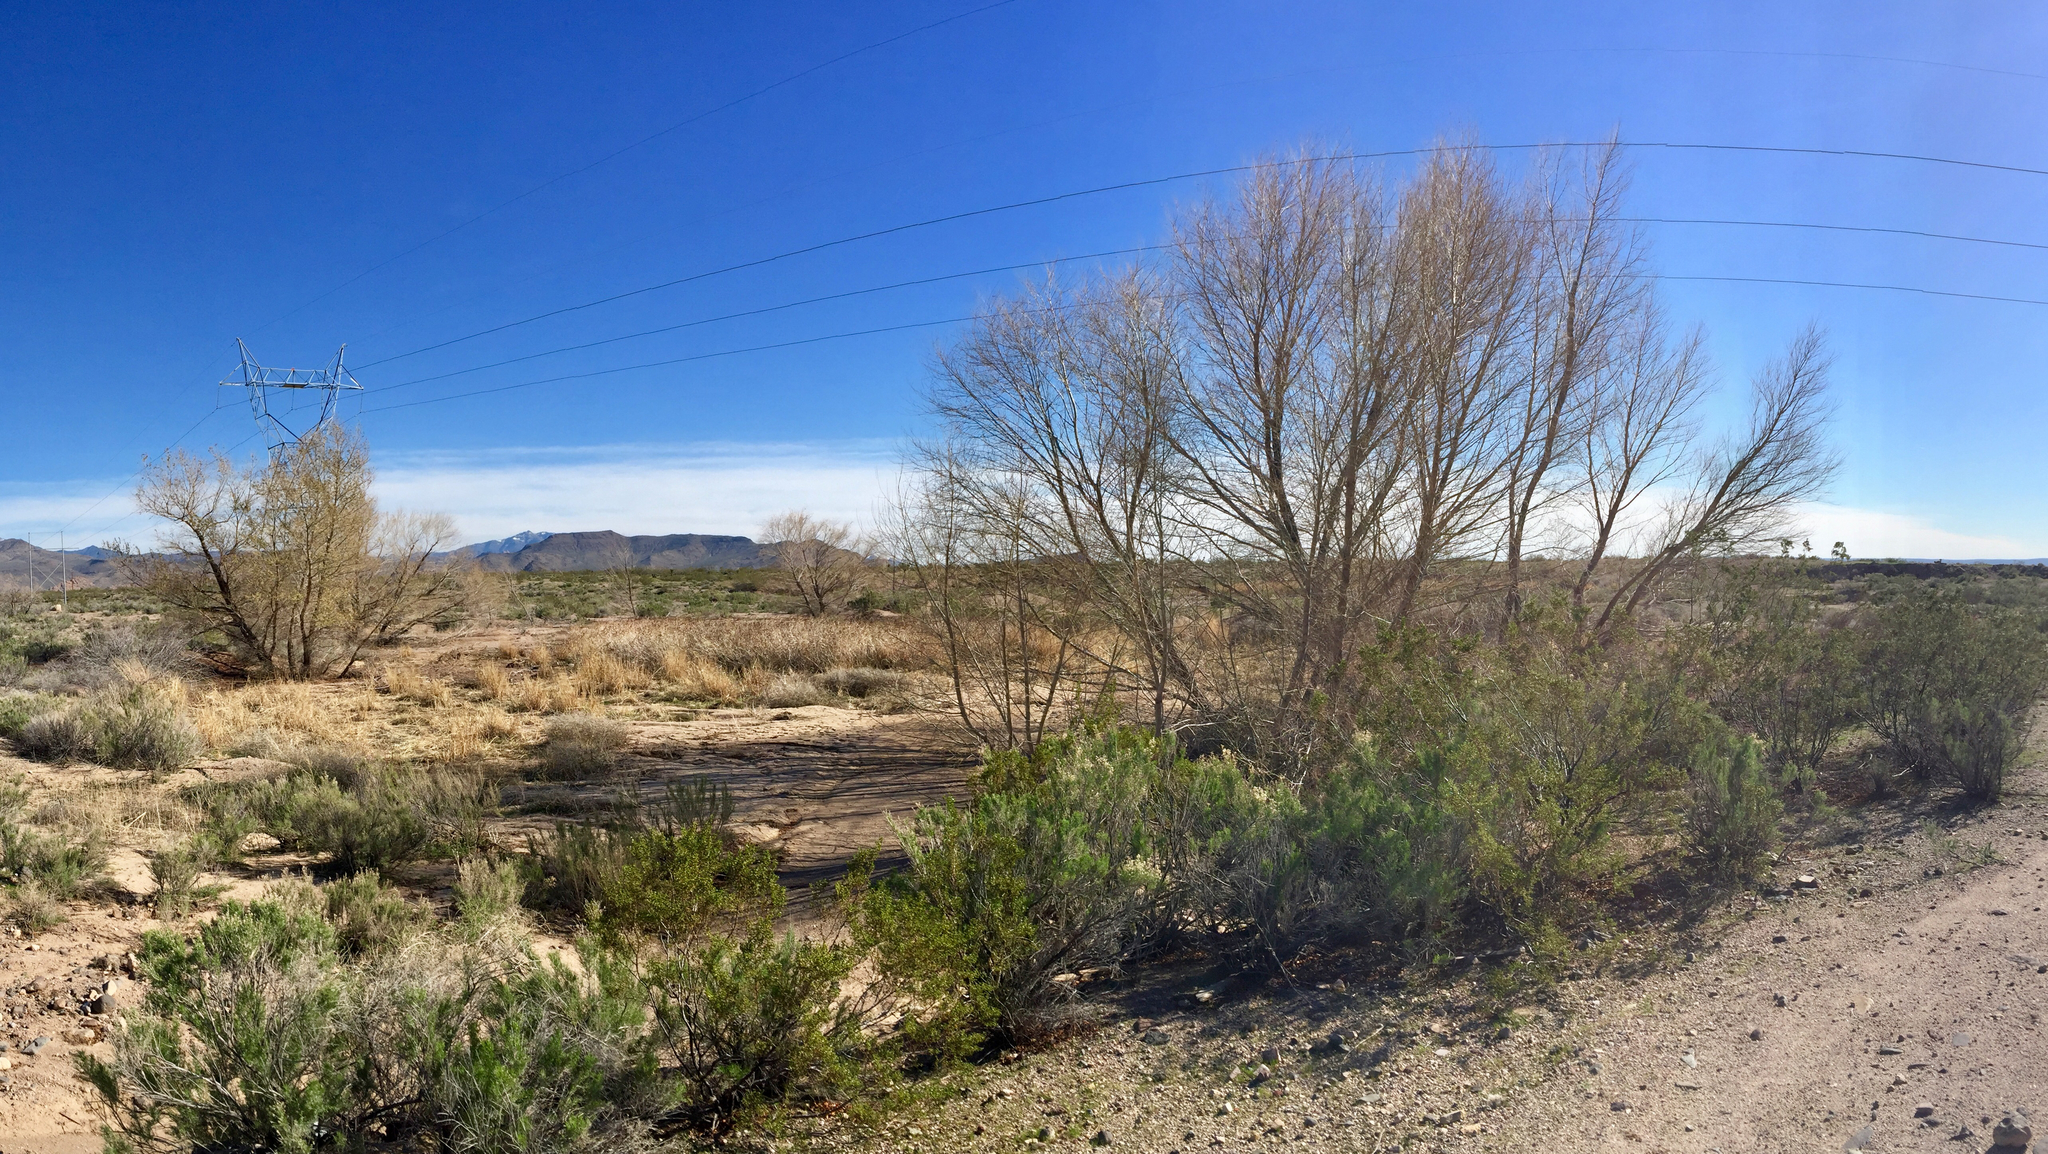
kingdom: Plantae
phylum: Tracheophyta
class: Magnoliopsida
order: Malpighiales
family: Salicaceae
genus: Salix
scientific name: Salix gooddingii
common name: Goodding's willow
